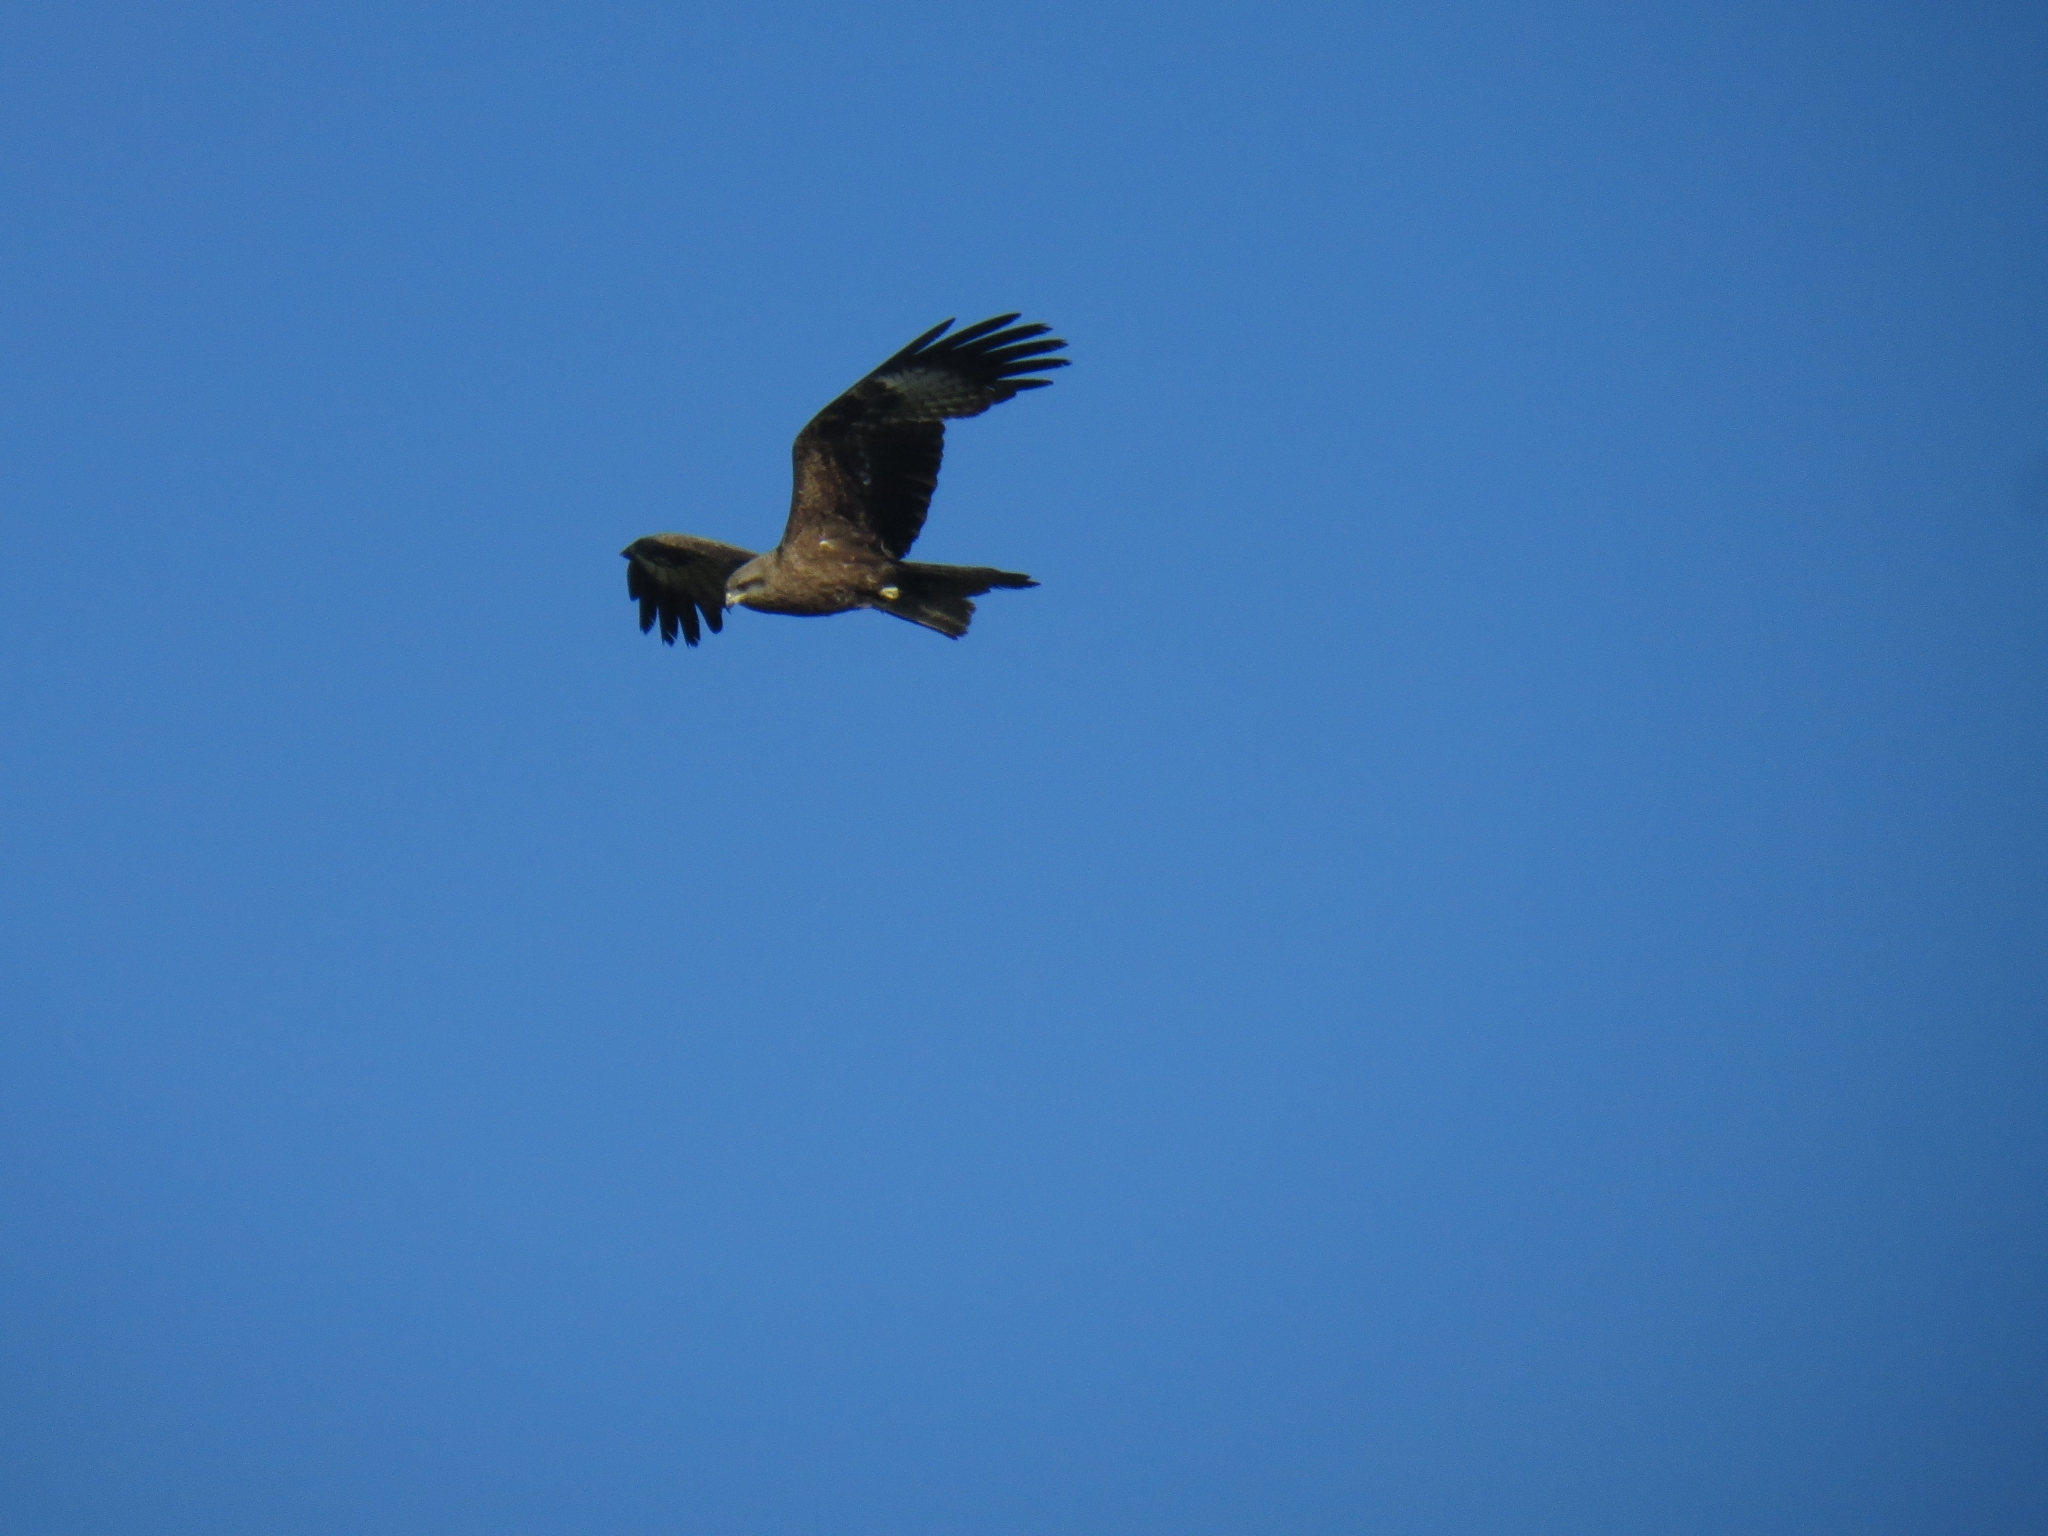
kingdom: Animalia
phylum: Chordata
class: Aves
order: Accipitriformes
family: Accipitridae
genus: Milvus
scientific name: Milvus migrans
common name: Black kite
